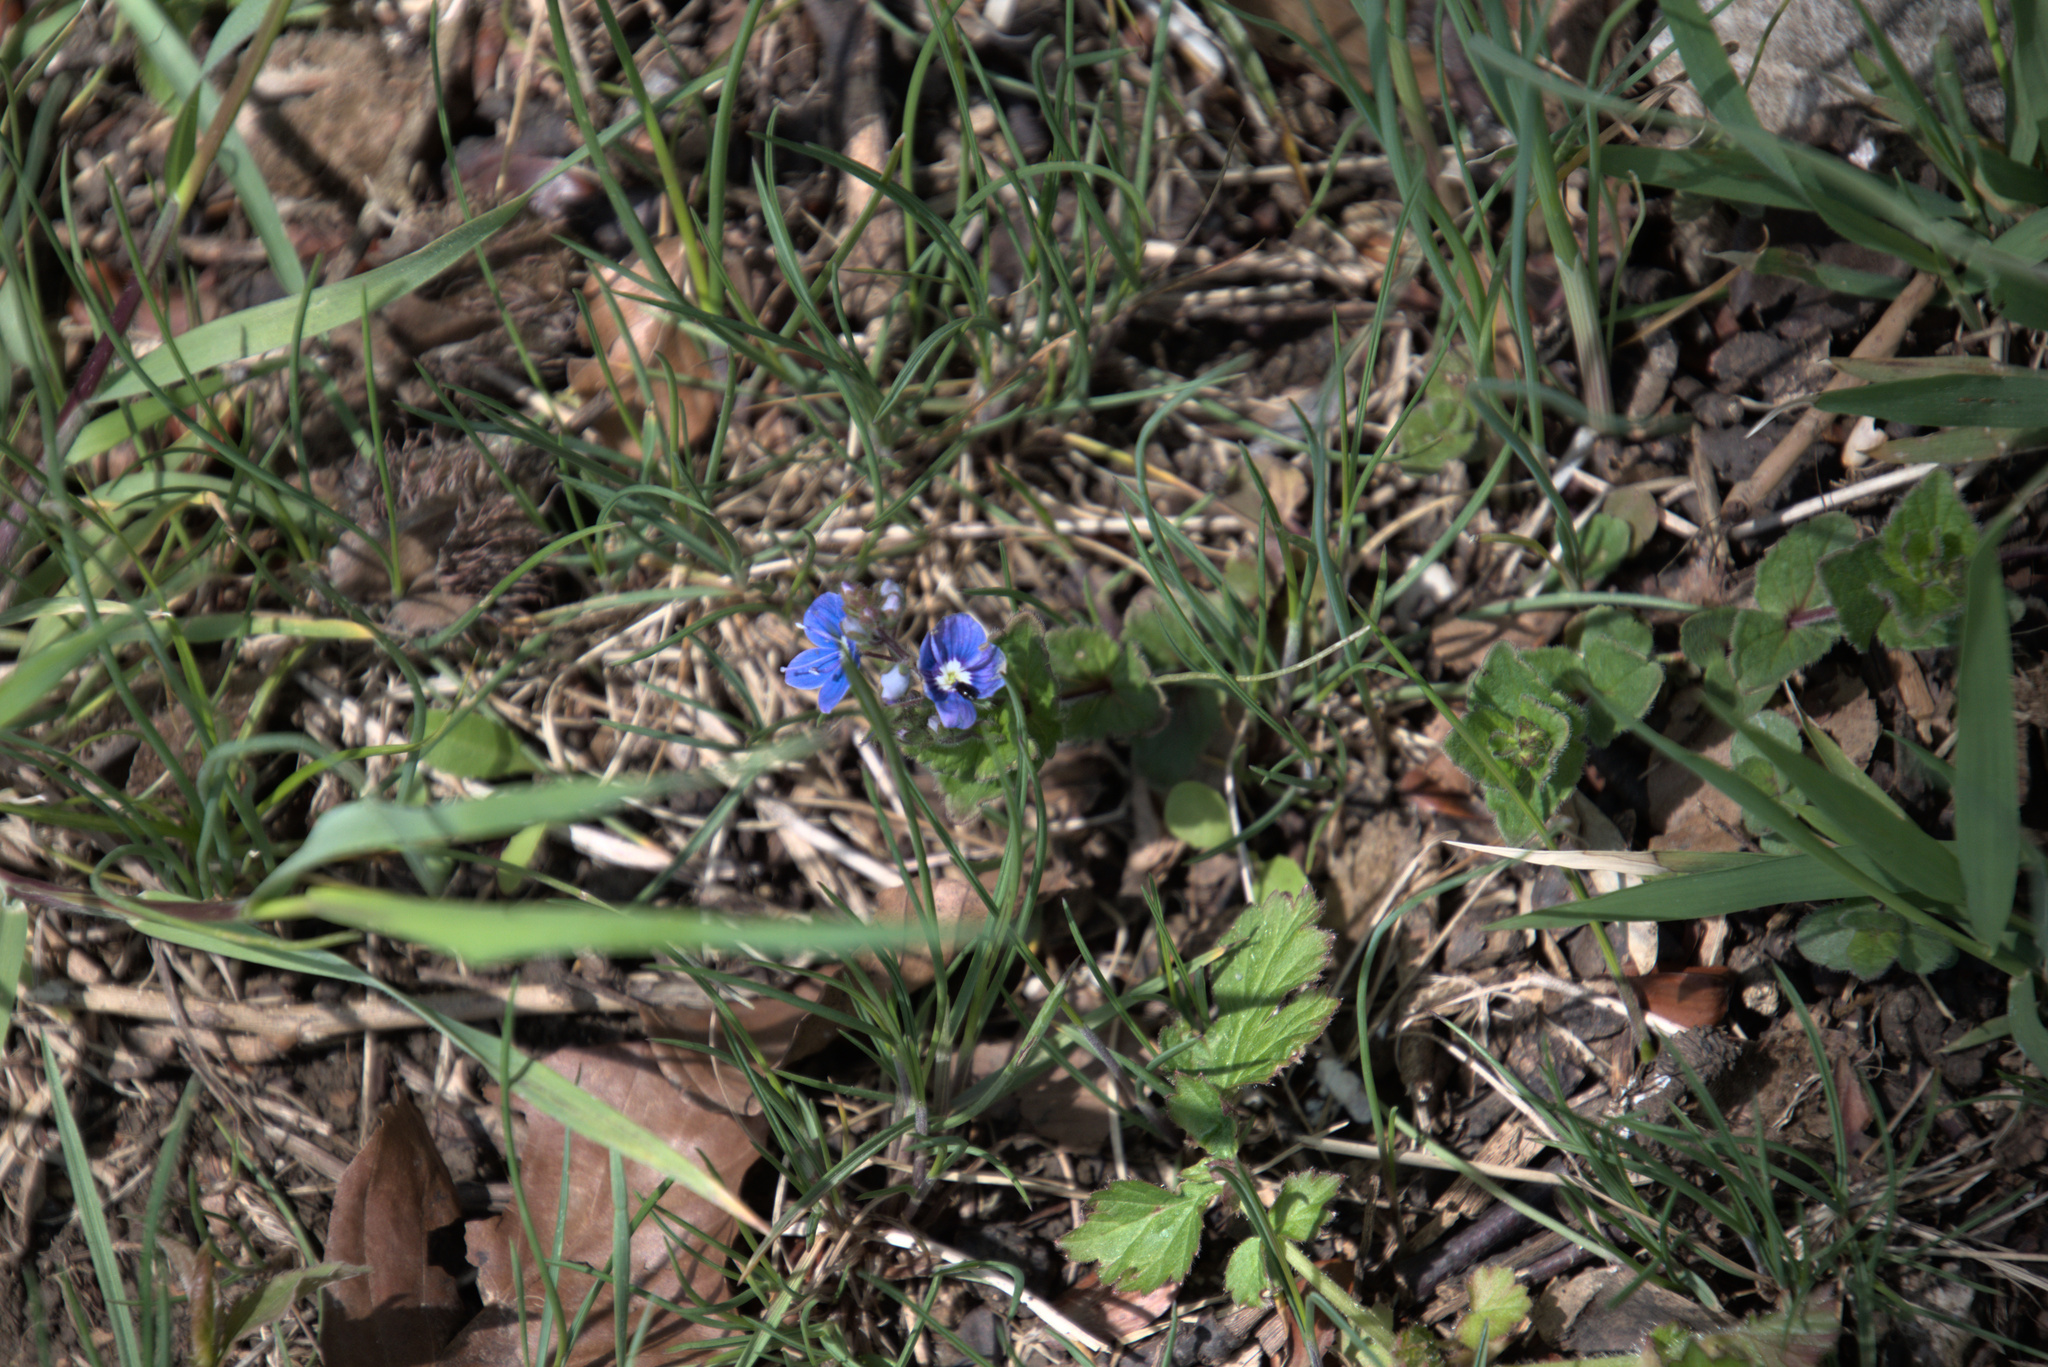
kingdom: Plantae
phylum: Tracheophyta
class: Magnoliopsida
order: Lamiales
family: Plantaginaceae
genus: Veronica
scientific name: Veronica chamaedrys
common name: Germander speedwell
